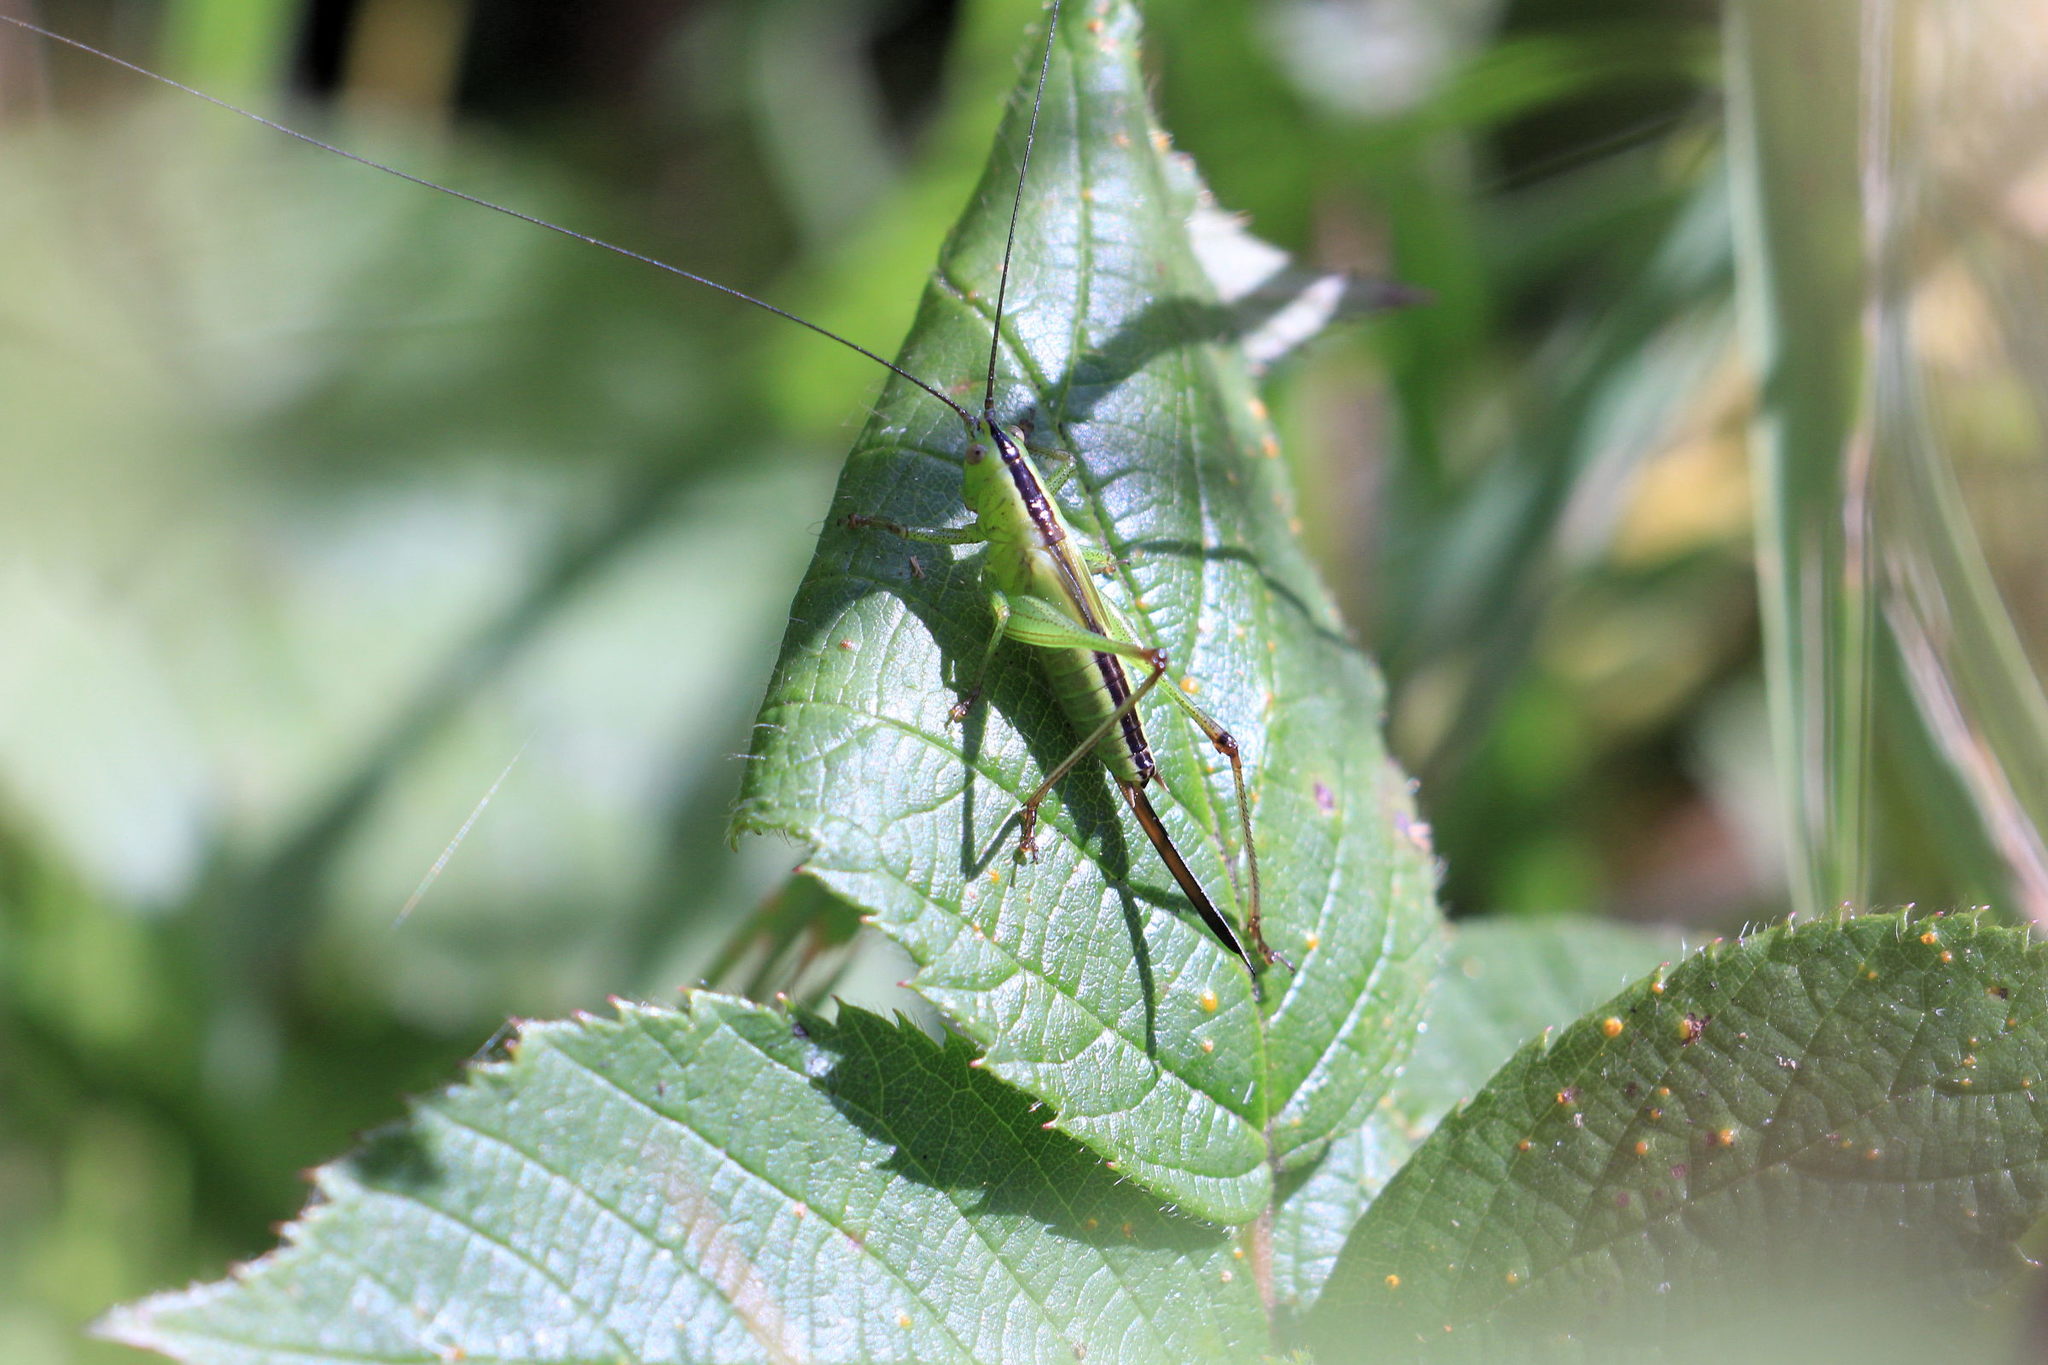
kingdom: Animalia
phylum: Arthropoda
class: Insecta
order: Orthoptera
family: Tettigoniidae
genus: Conocephalus
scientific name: Conocephalus fuscus
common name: Long-winged conehead
